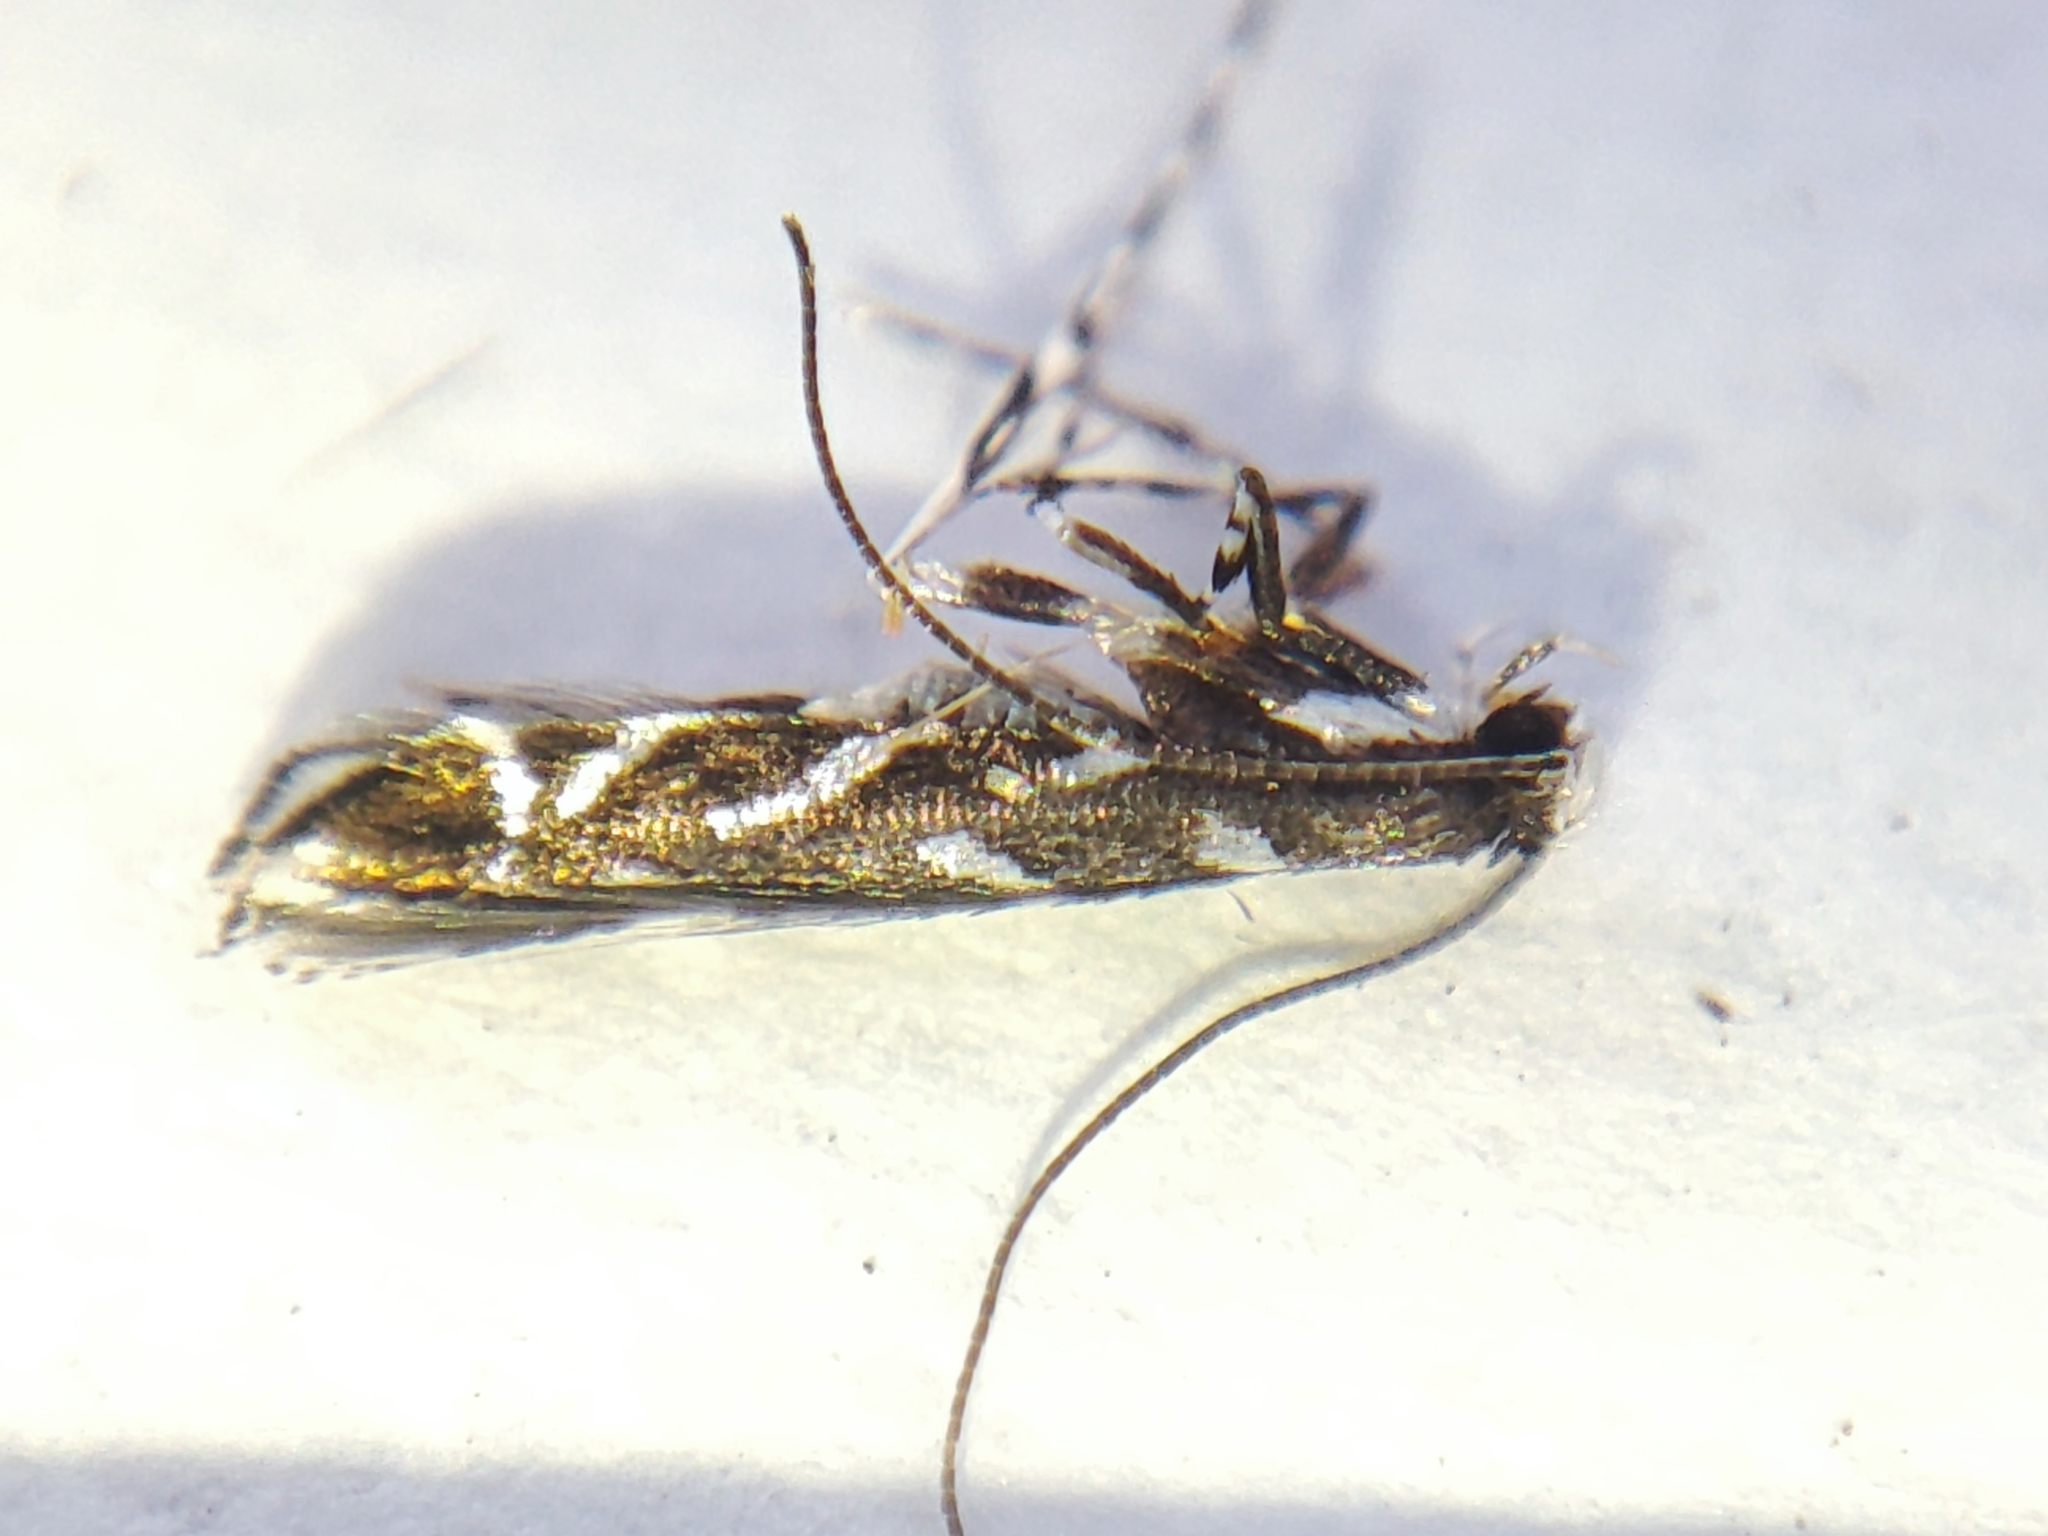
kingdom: Animalia
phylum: Arthropoda
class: Insecta
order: Lepidoptera
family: Gracillariidae
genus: Parectopa
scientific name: Parectopa robiniella
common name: Locust digitate leafminer
